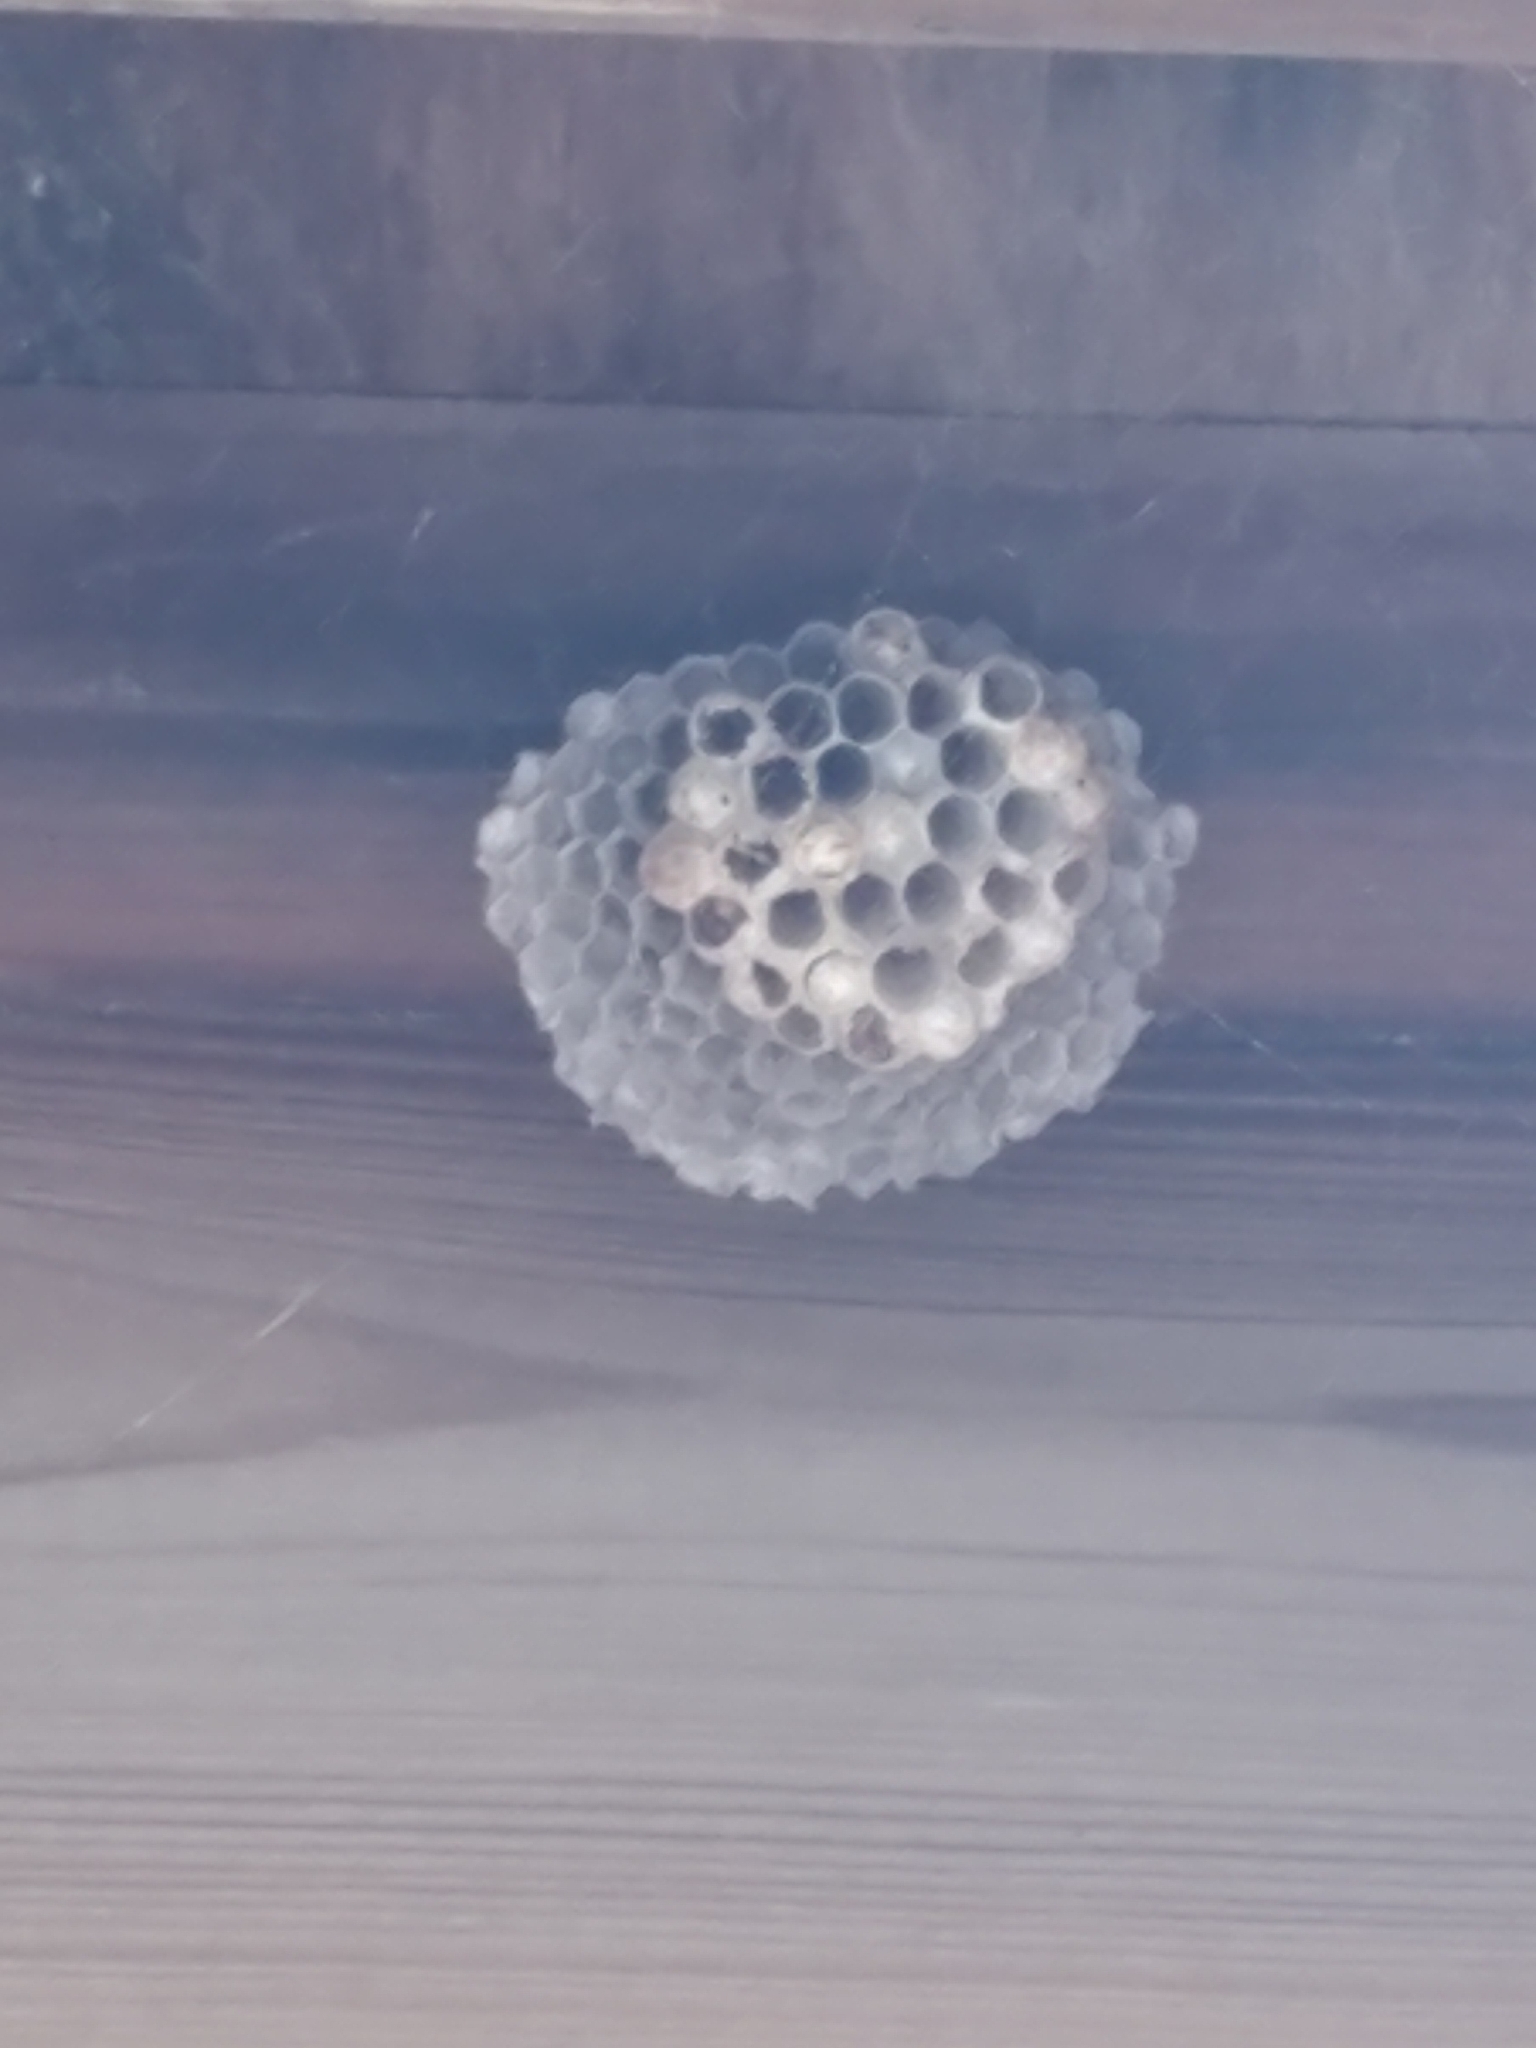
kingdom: Animalia
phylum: Arthropoda
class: Insecta
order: Hymenoptera
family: Eumenidae
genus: Polistes
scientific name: Polistes
